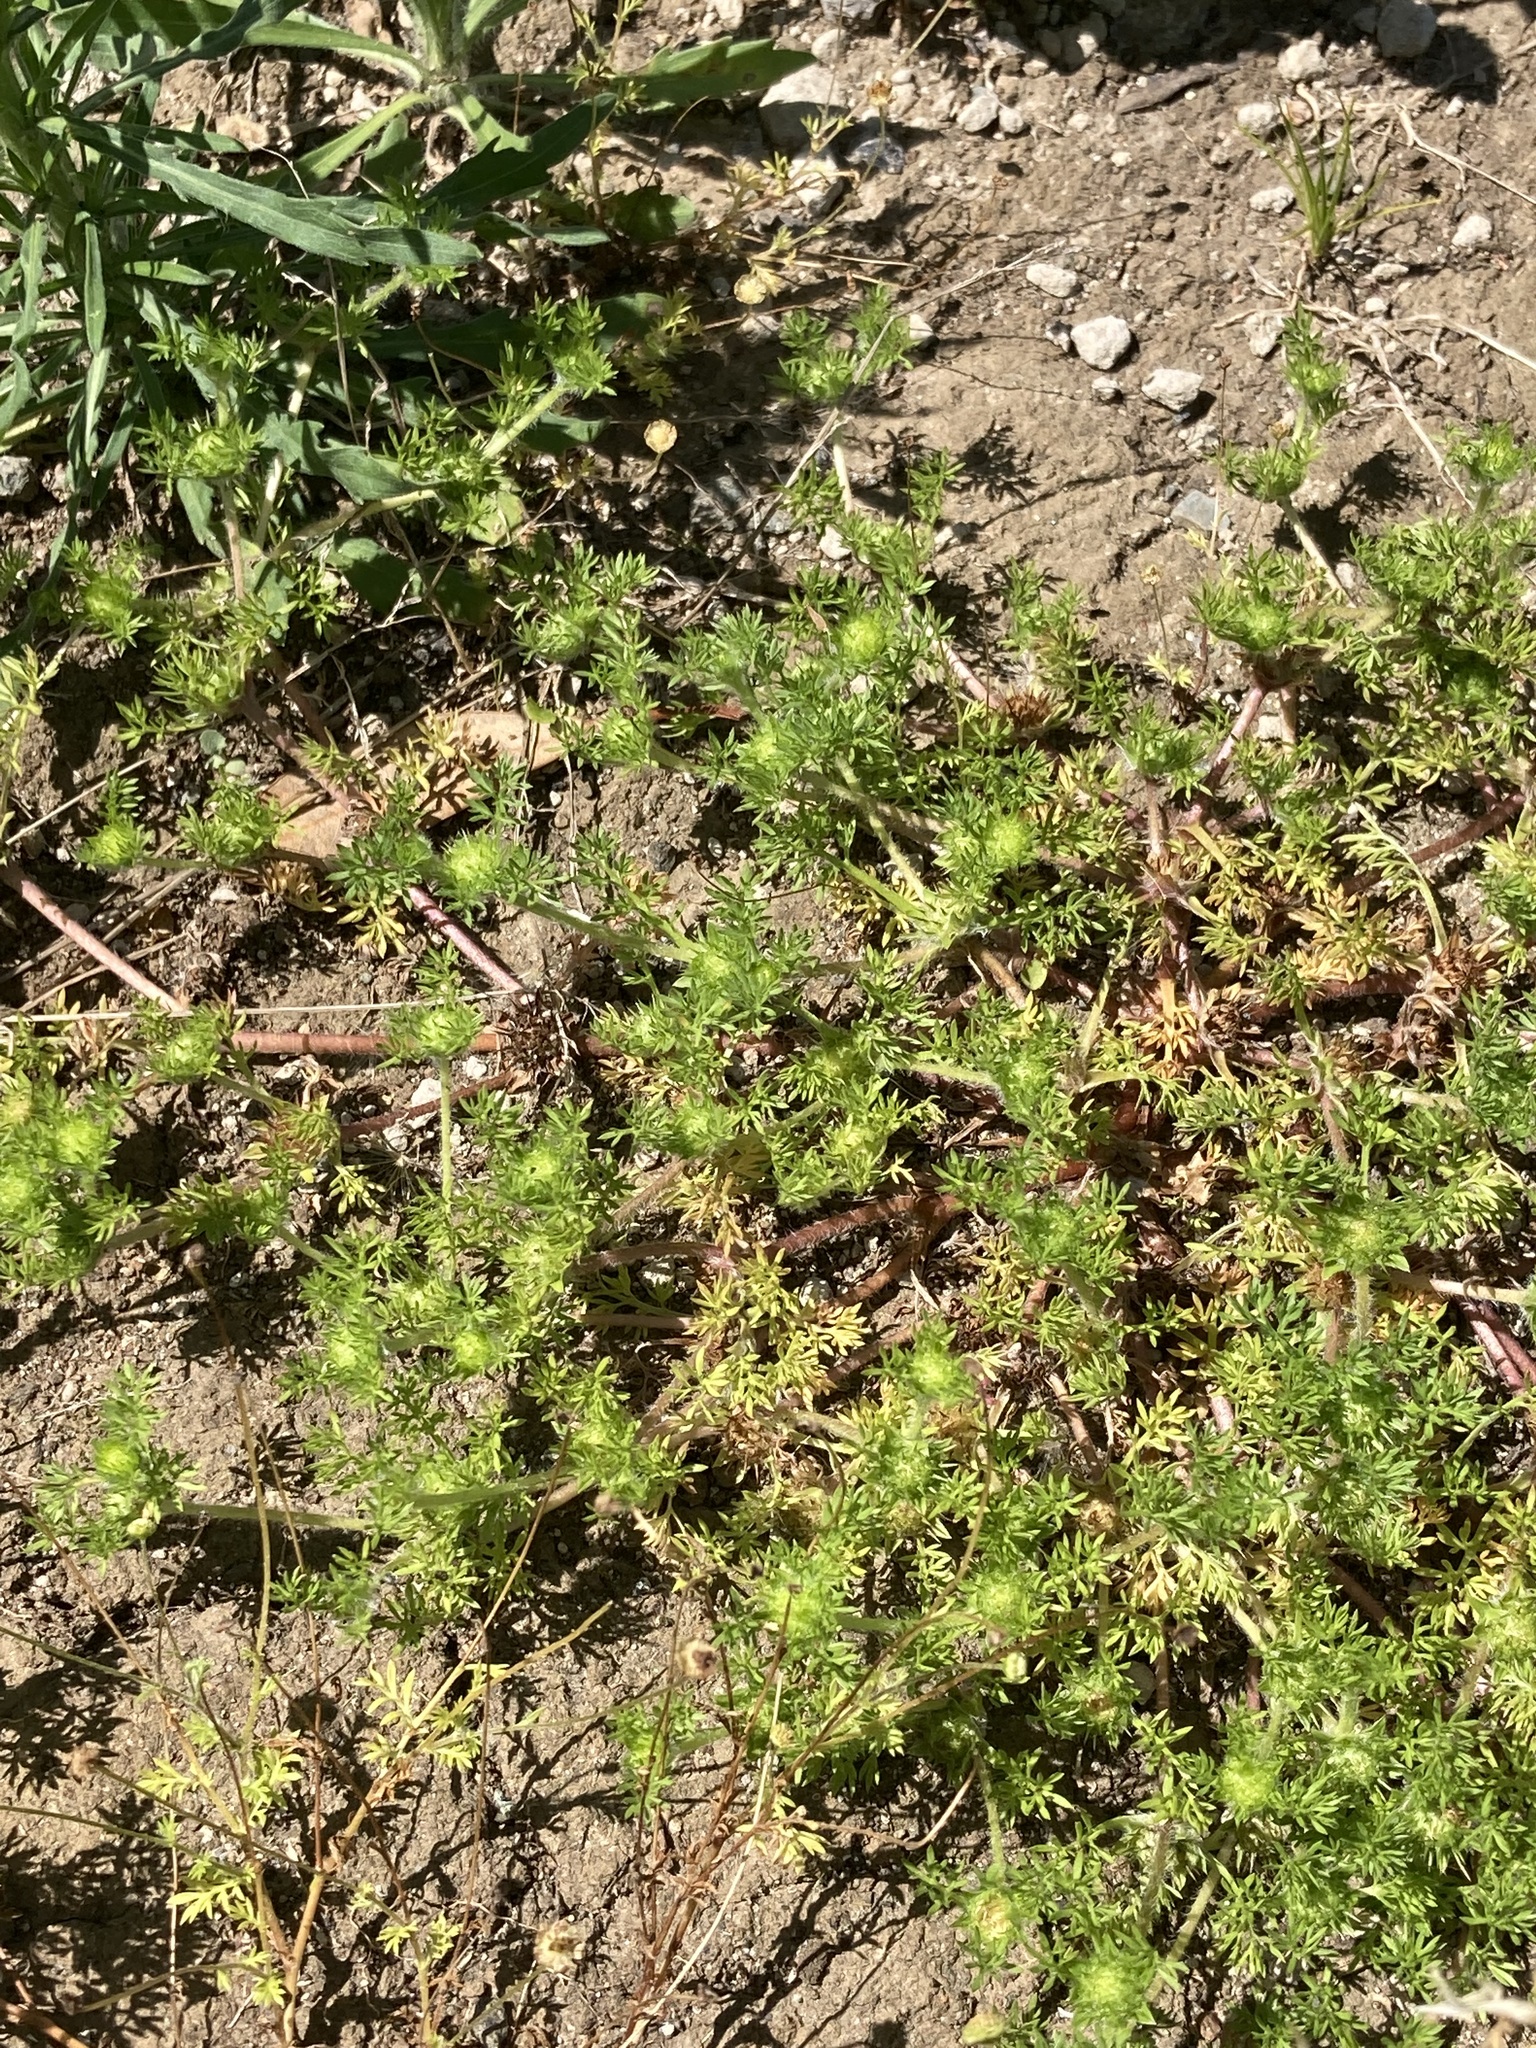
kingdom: Plantae
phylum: Tracheophyta
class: Magnoliopsida
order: Asterales
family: Asteraceae
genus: Soliva
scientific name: Soliva sessilis
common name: Field burrweed
